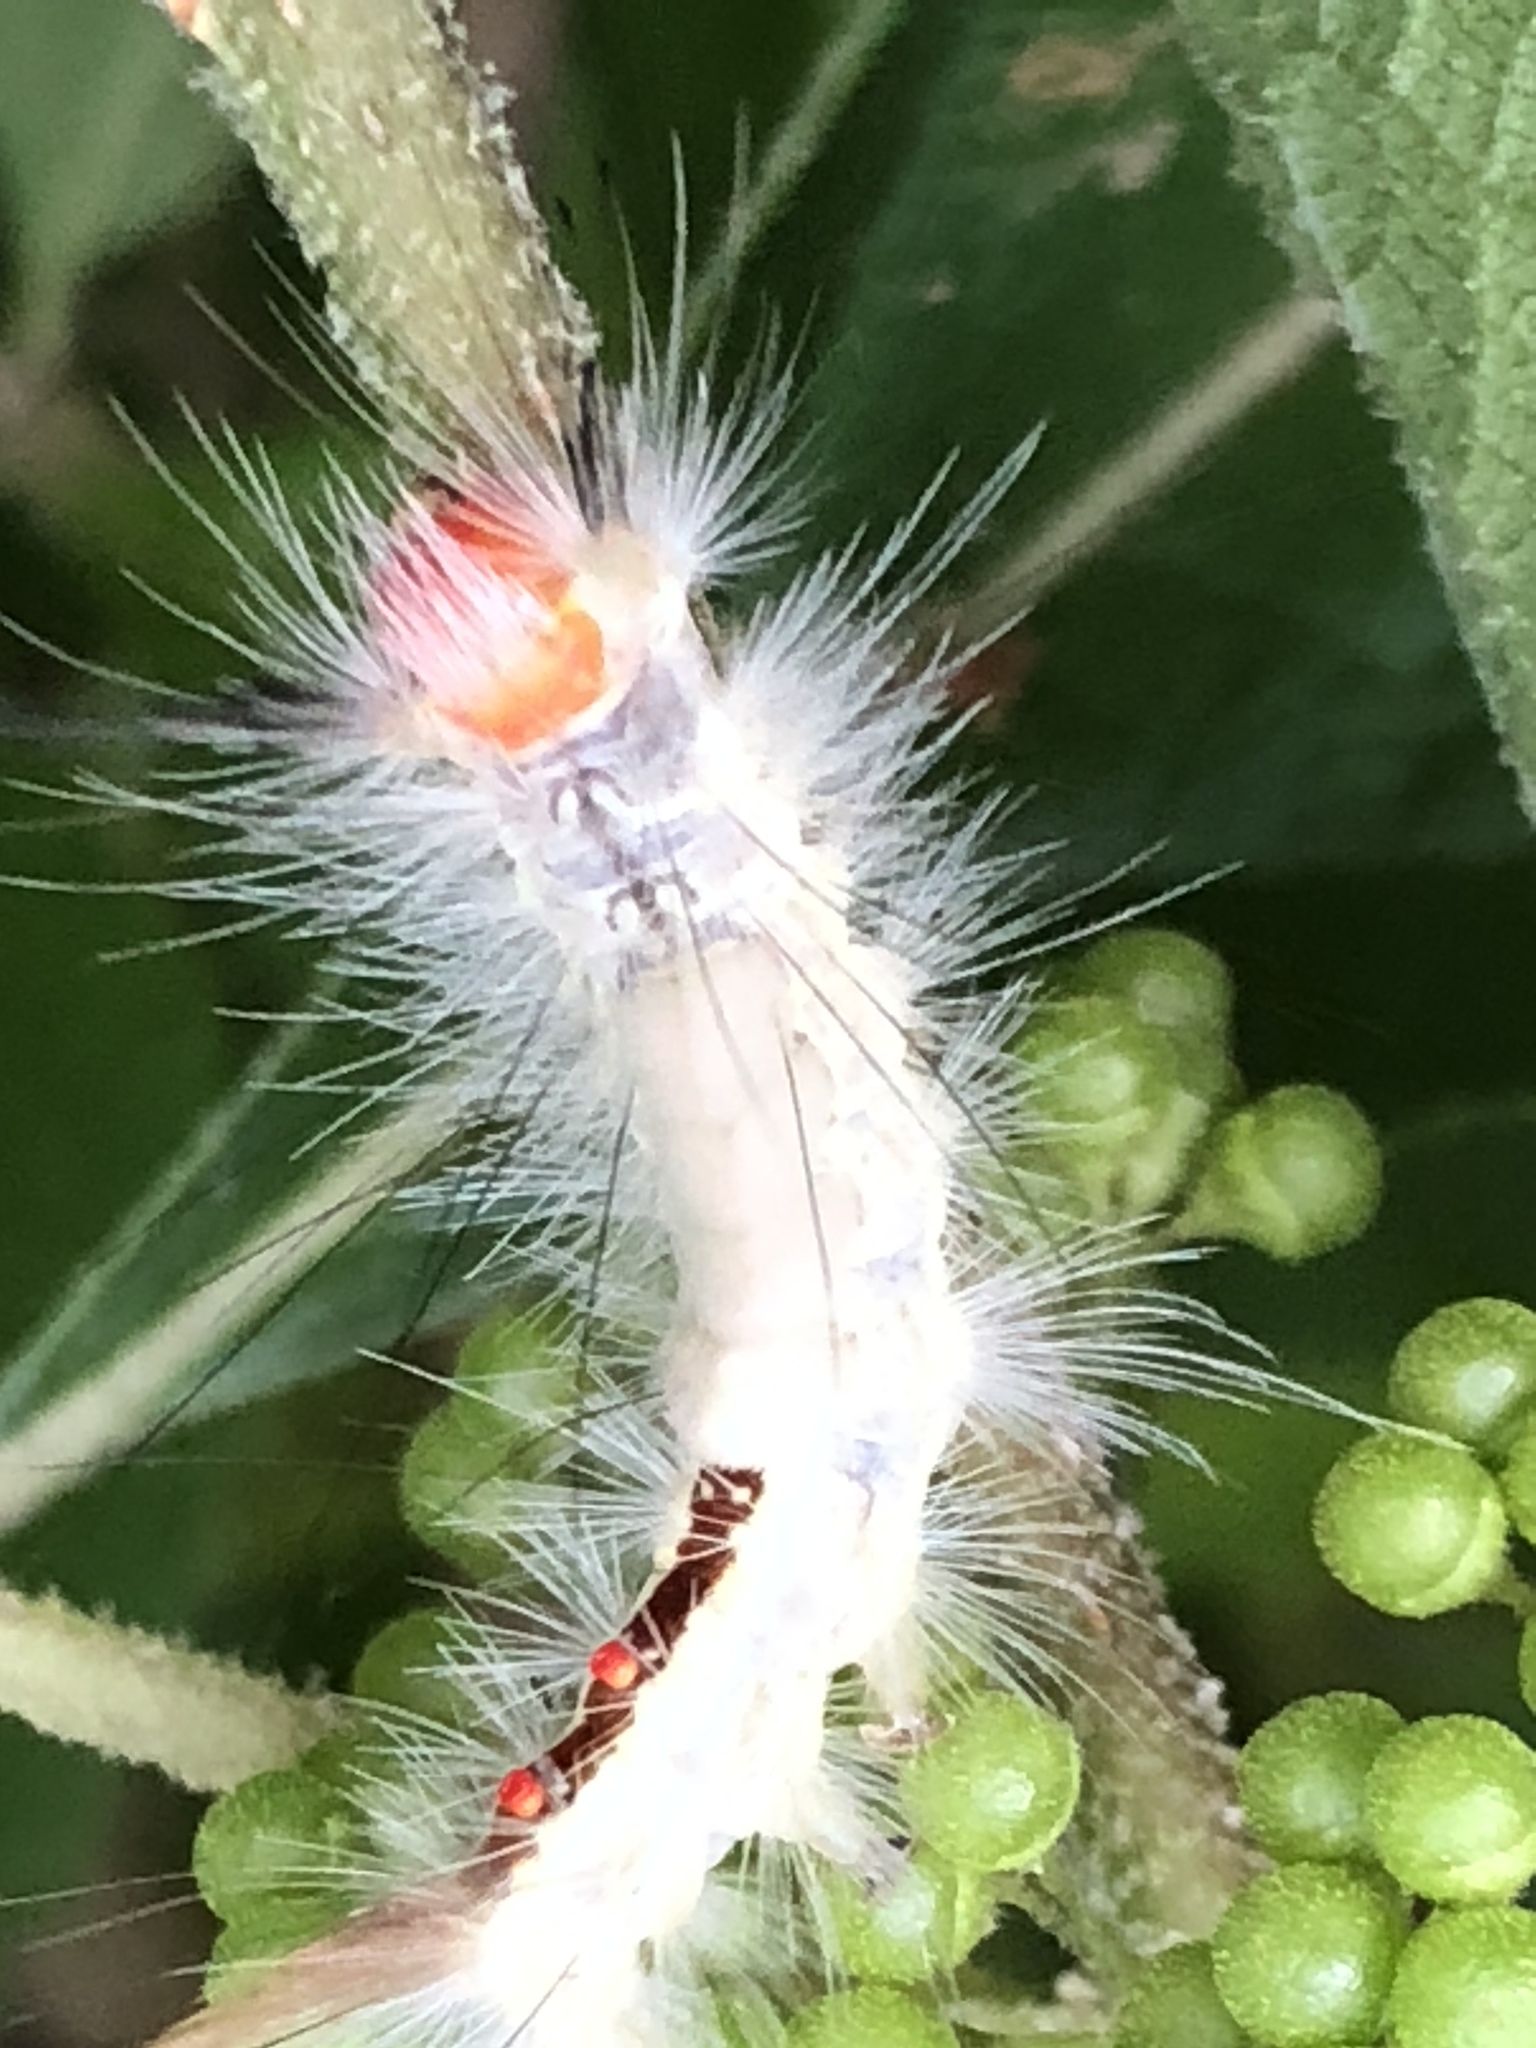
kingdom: Animalia
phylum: Arthropoda
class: Insecta
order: Lepidoptera
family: Erebidae
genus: Orgyia
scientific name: Orgyia leucostigma
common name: White-marked tussock moth
